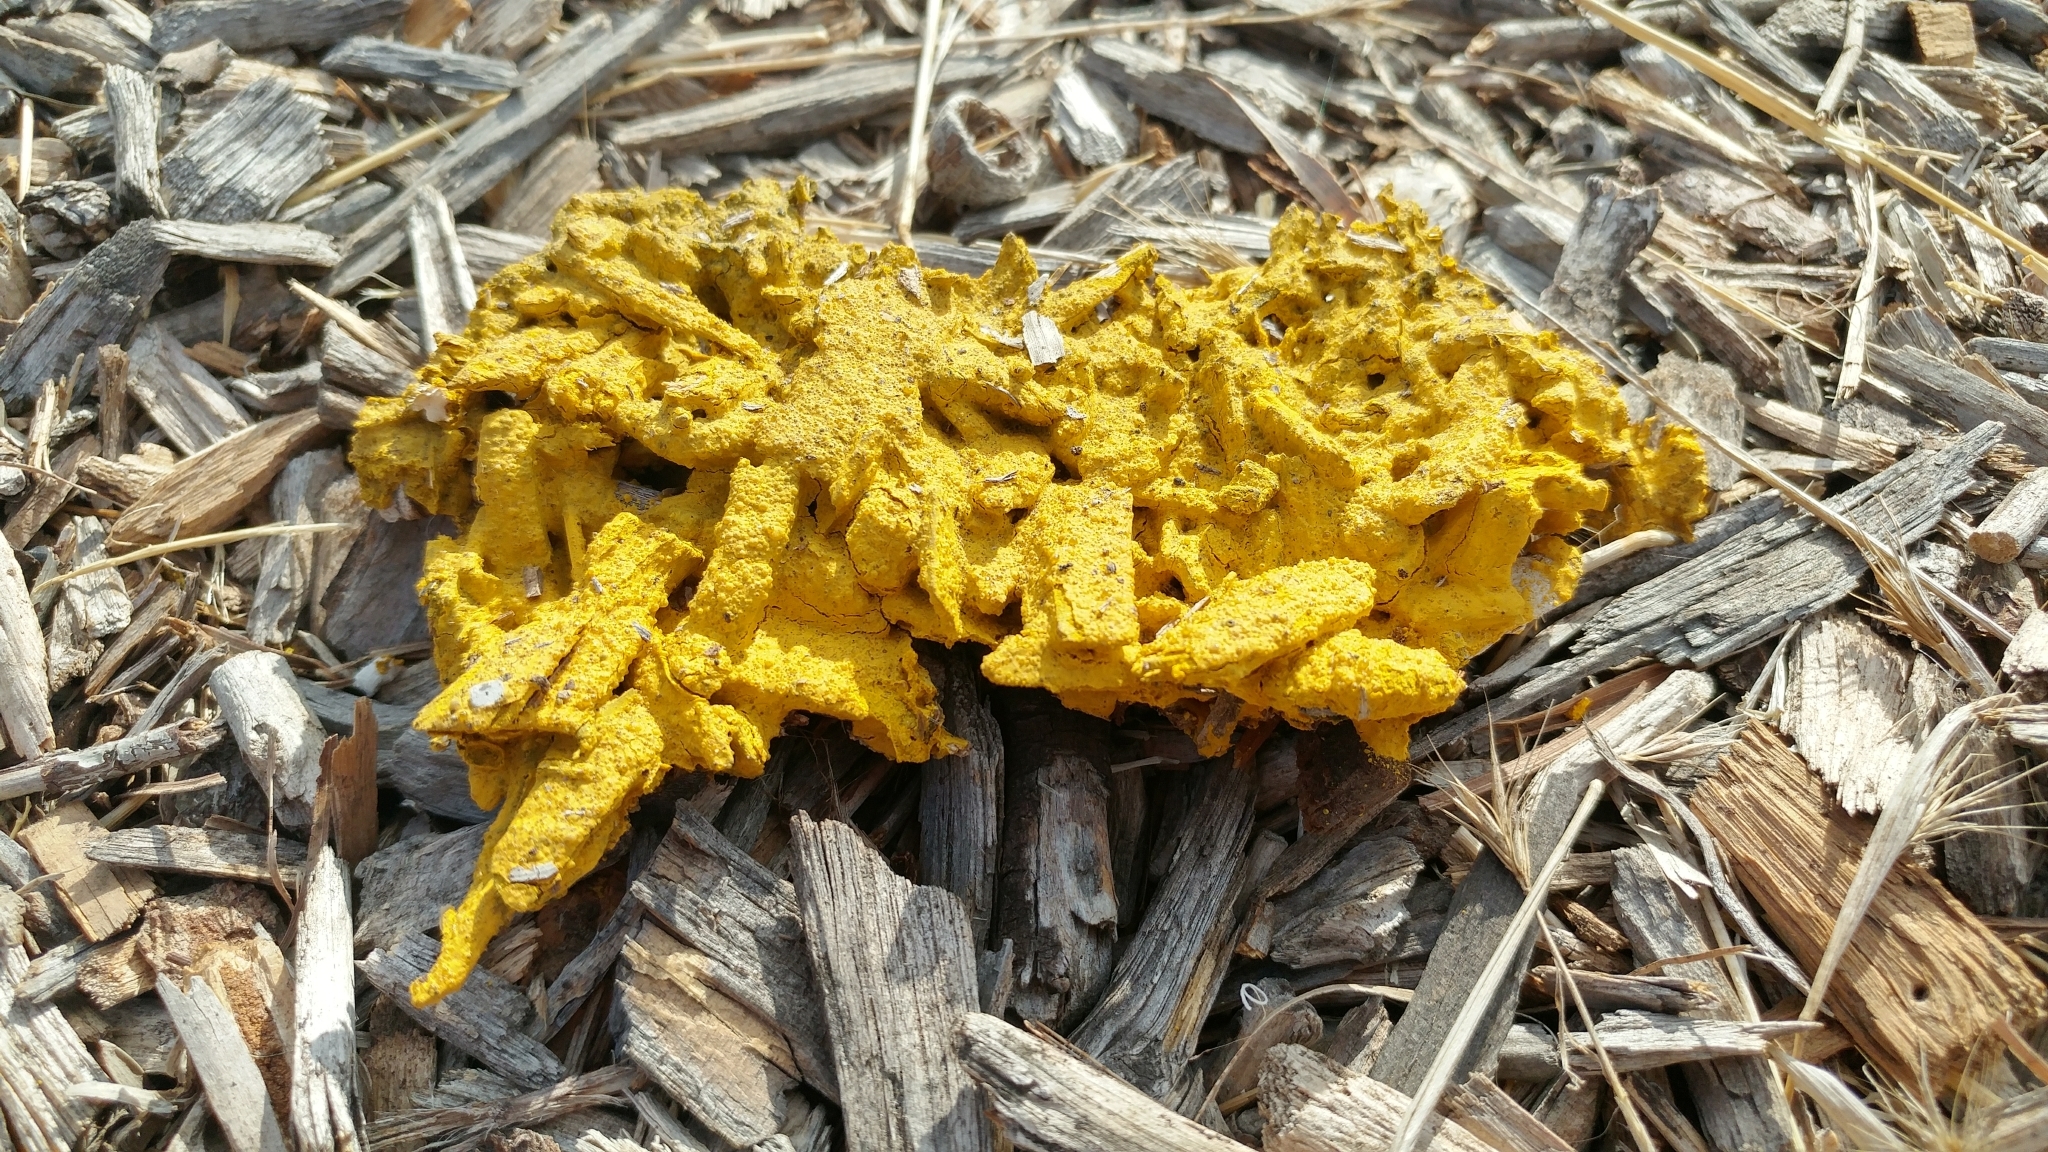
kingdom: Protozoa
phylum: Mycetozoa
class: Myxomycetes
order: Physarales
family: Physaraceae
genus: Fuligo
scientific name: Fuligo septica
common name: Dog vomit slime mold
